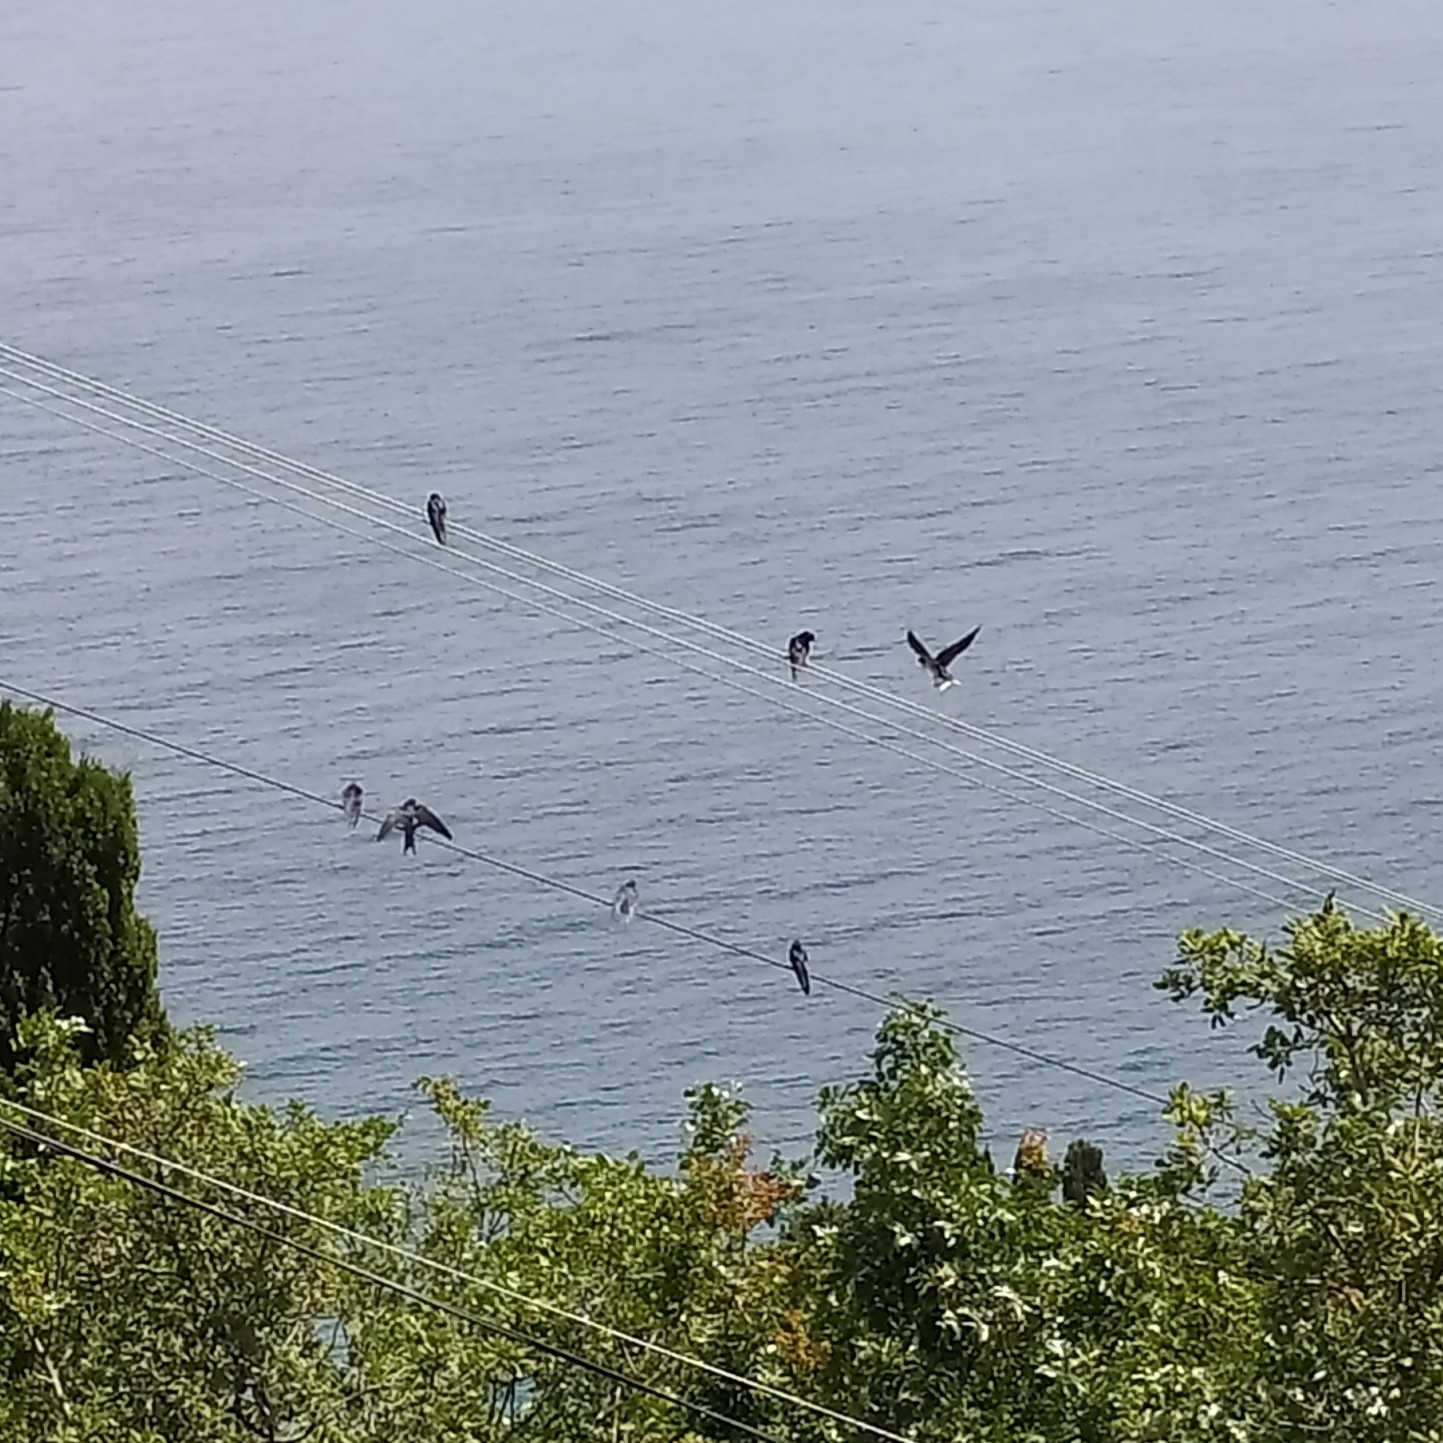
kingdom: Animalia
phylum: Chordata
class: Aves
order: Passeriformes
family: Hirundinidae
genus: Hirundo
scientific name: Hirundo rustica
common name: Barn swallow
